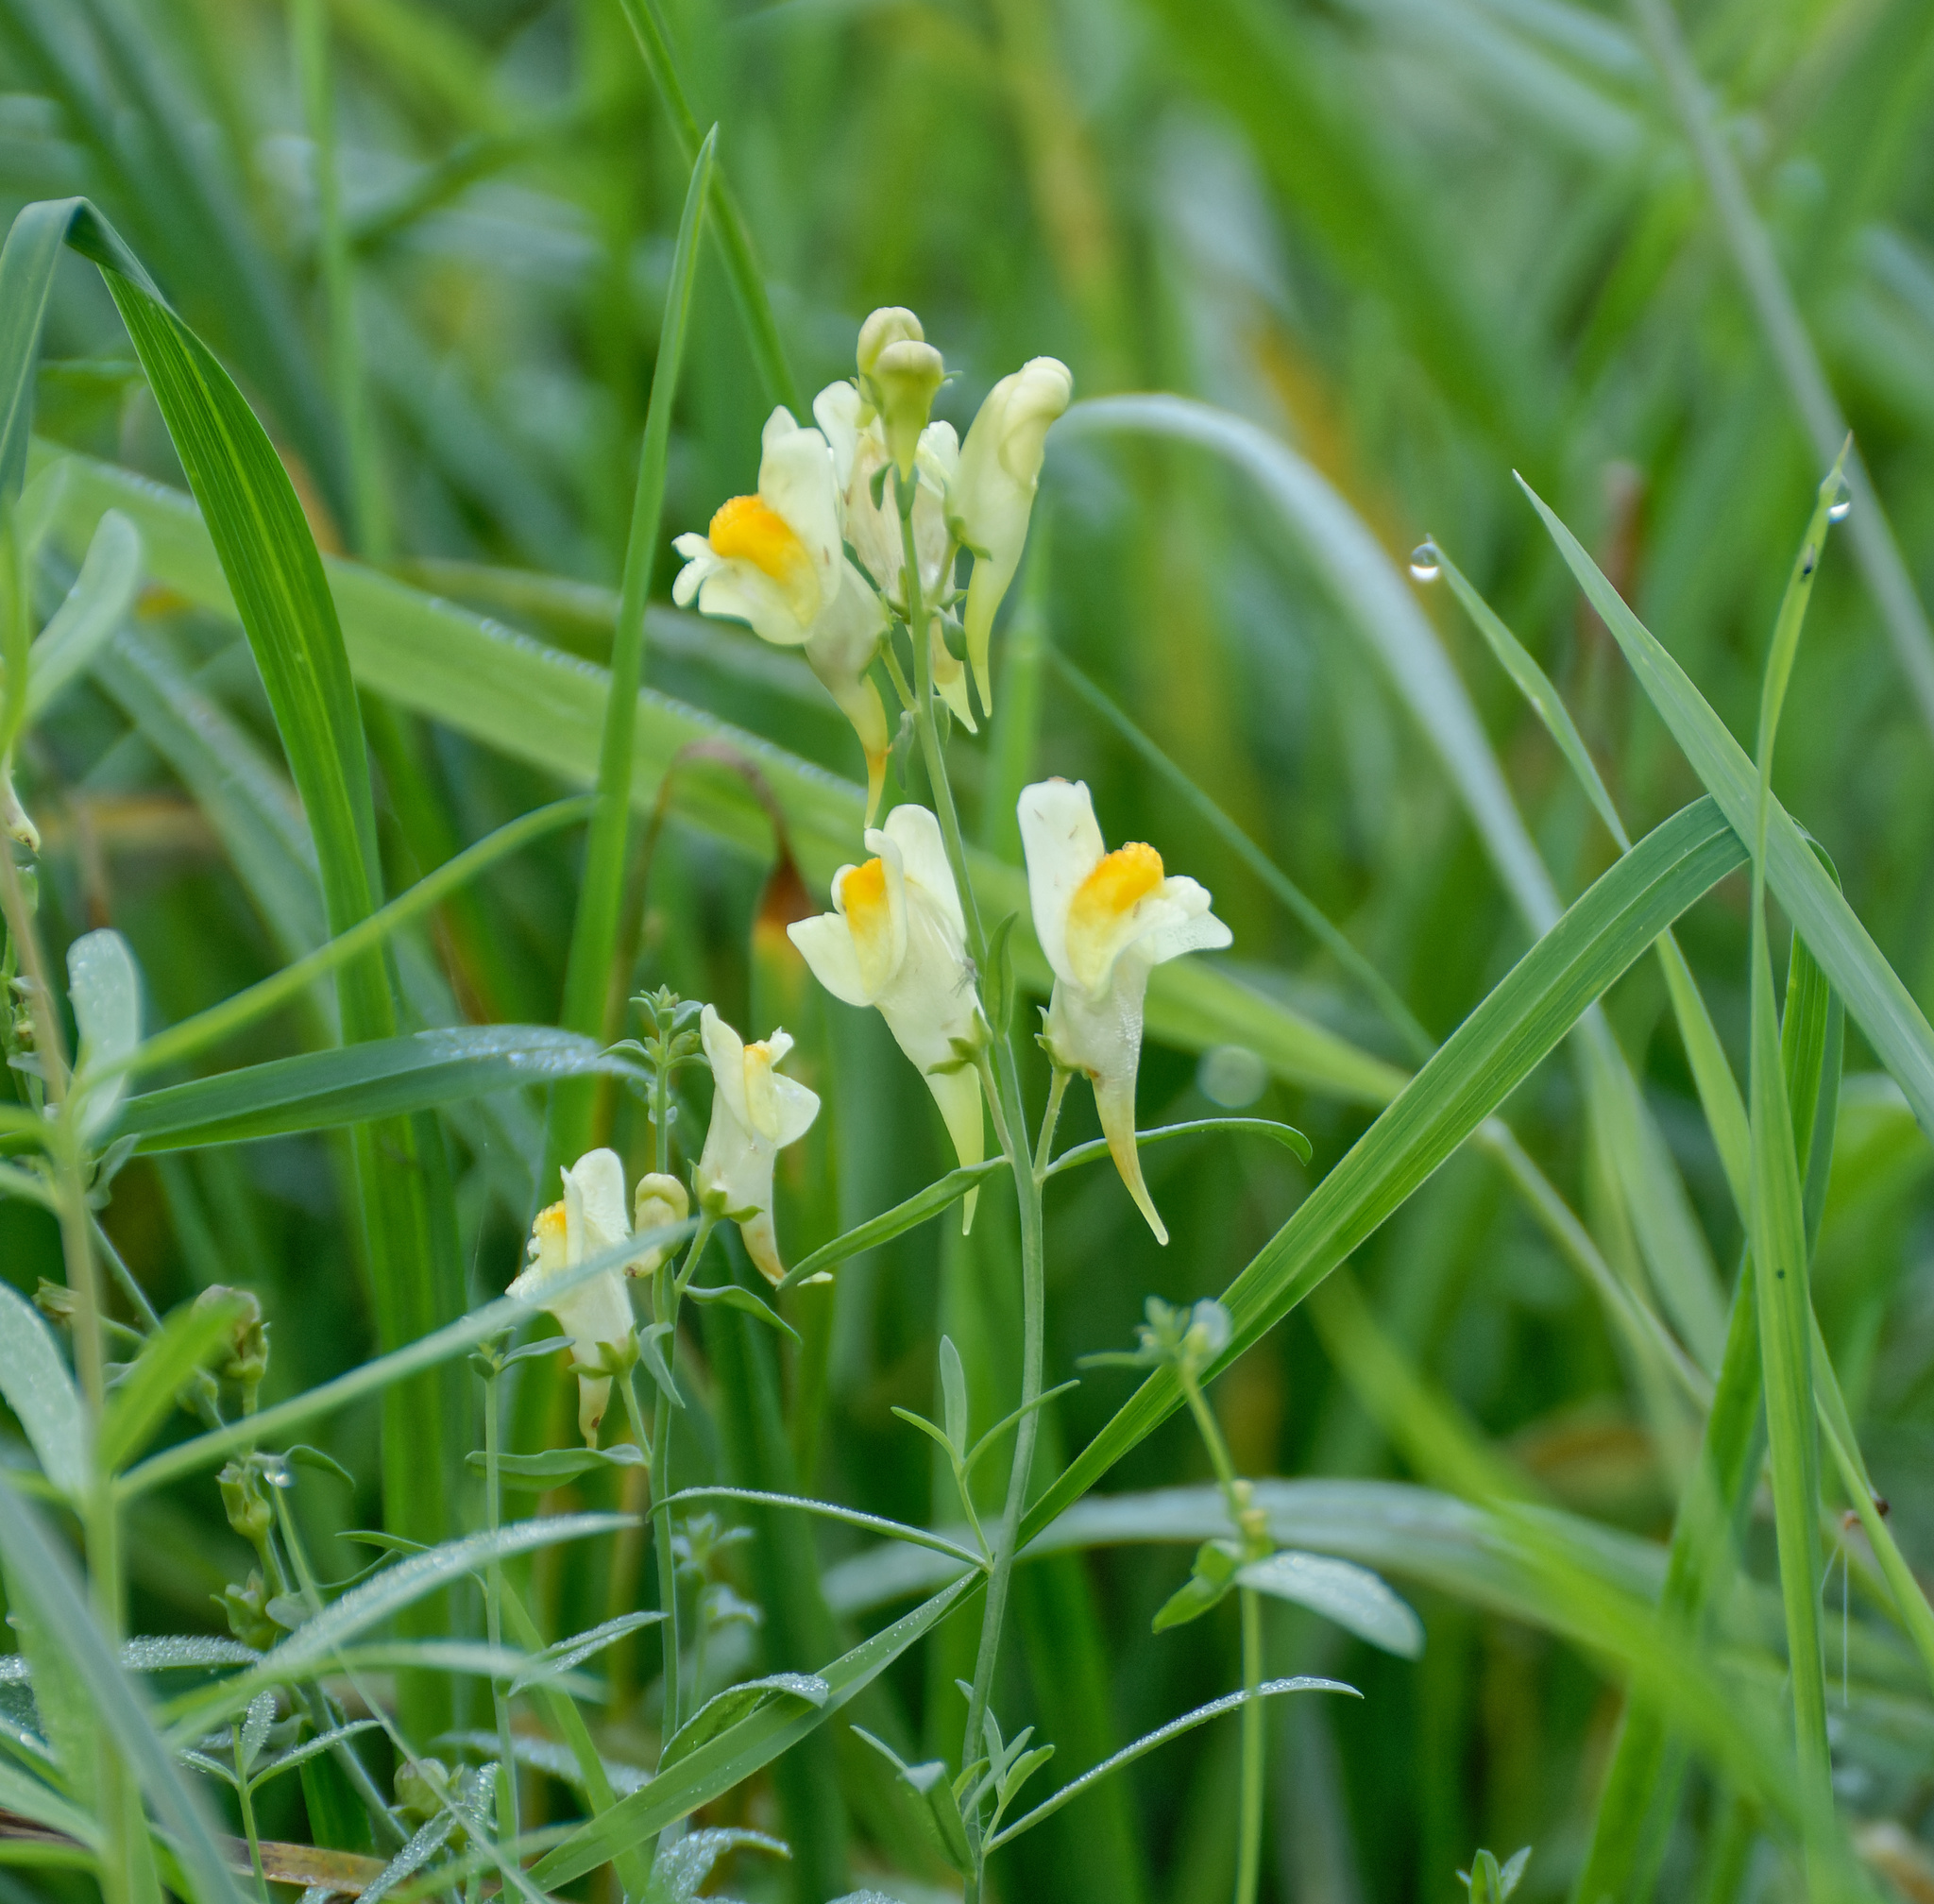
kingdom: Plantae
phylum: Tracheophyta
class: Magnoliopsida
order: Lamiales
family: Plantaginaceae
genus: Linaria
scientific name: Linaria vulgaris
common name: Butter and eggs
